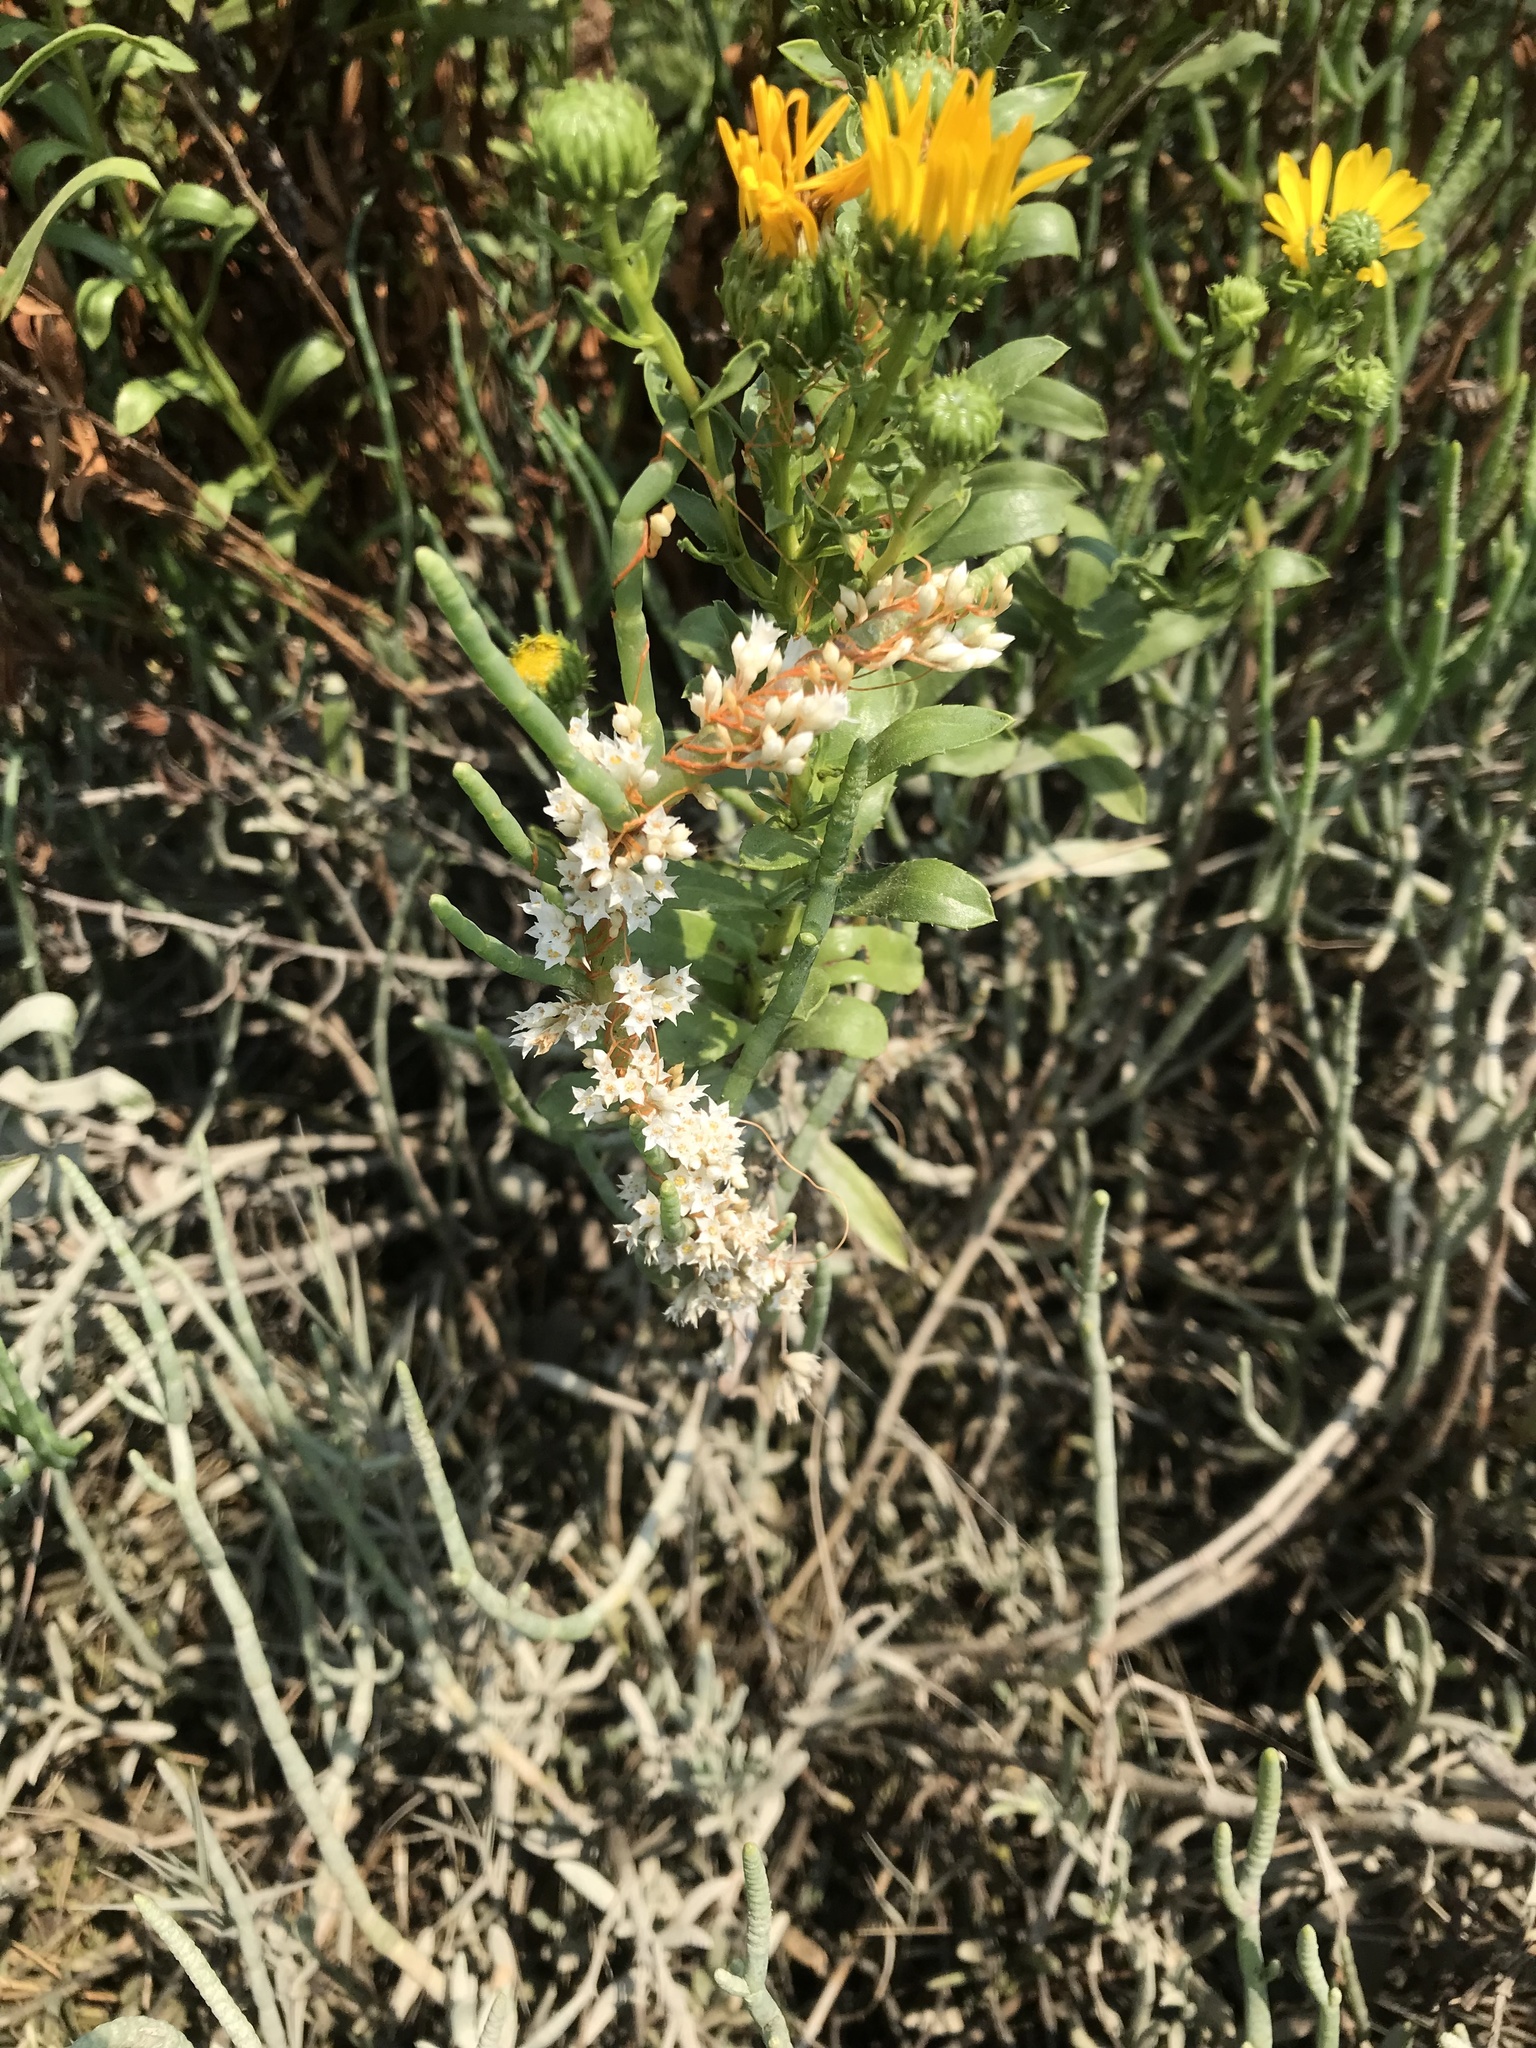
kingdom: Plantae
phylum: Tracheophyta
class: Magnoliopsida
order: Solanales
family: Convolvulaceae
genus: Cuscuta
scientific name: Cuscuta pacifica
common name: Large saltmarsh dodder
